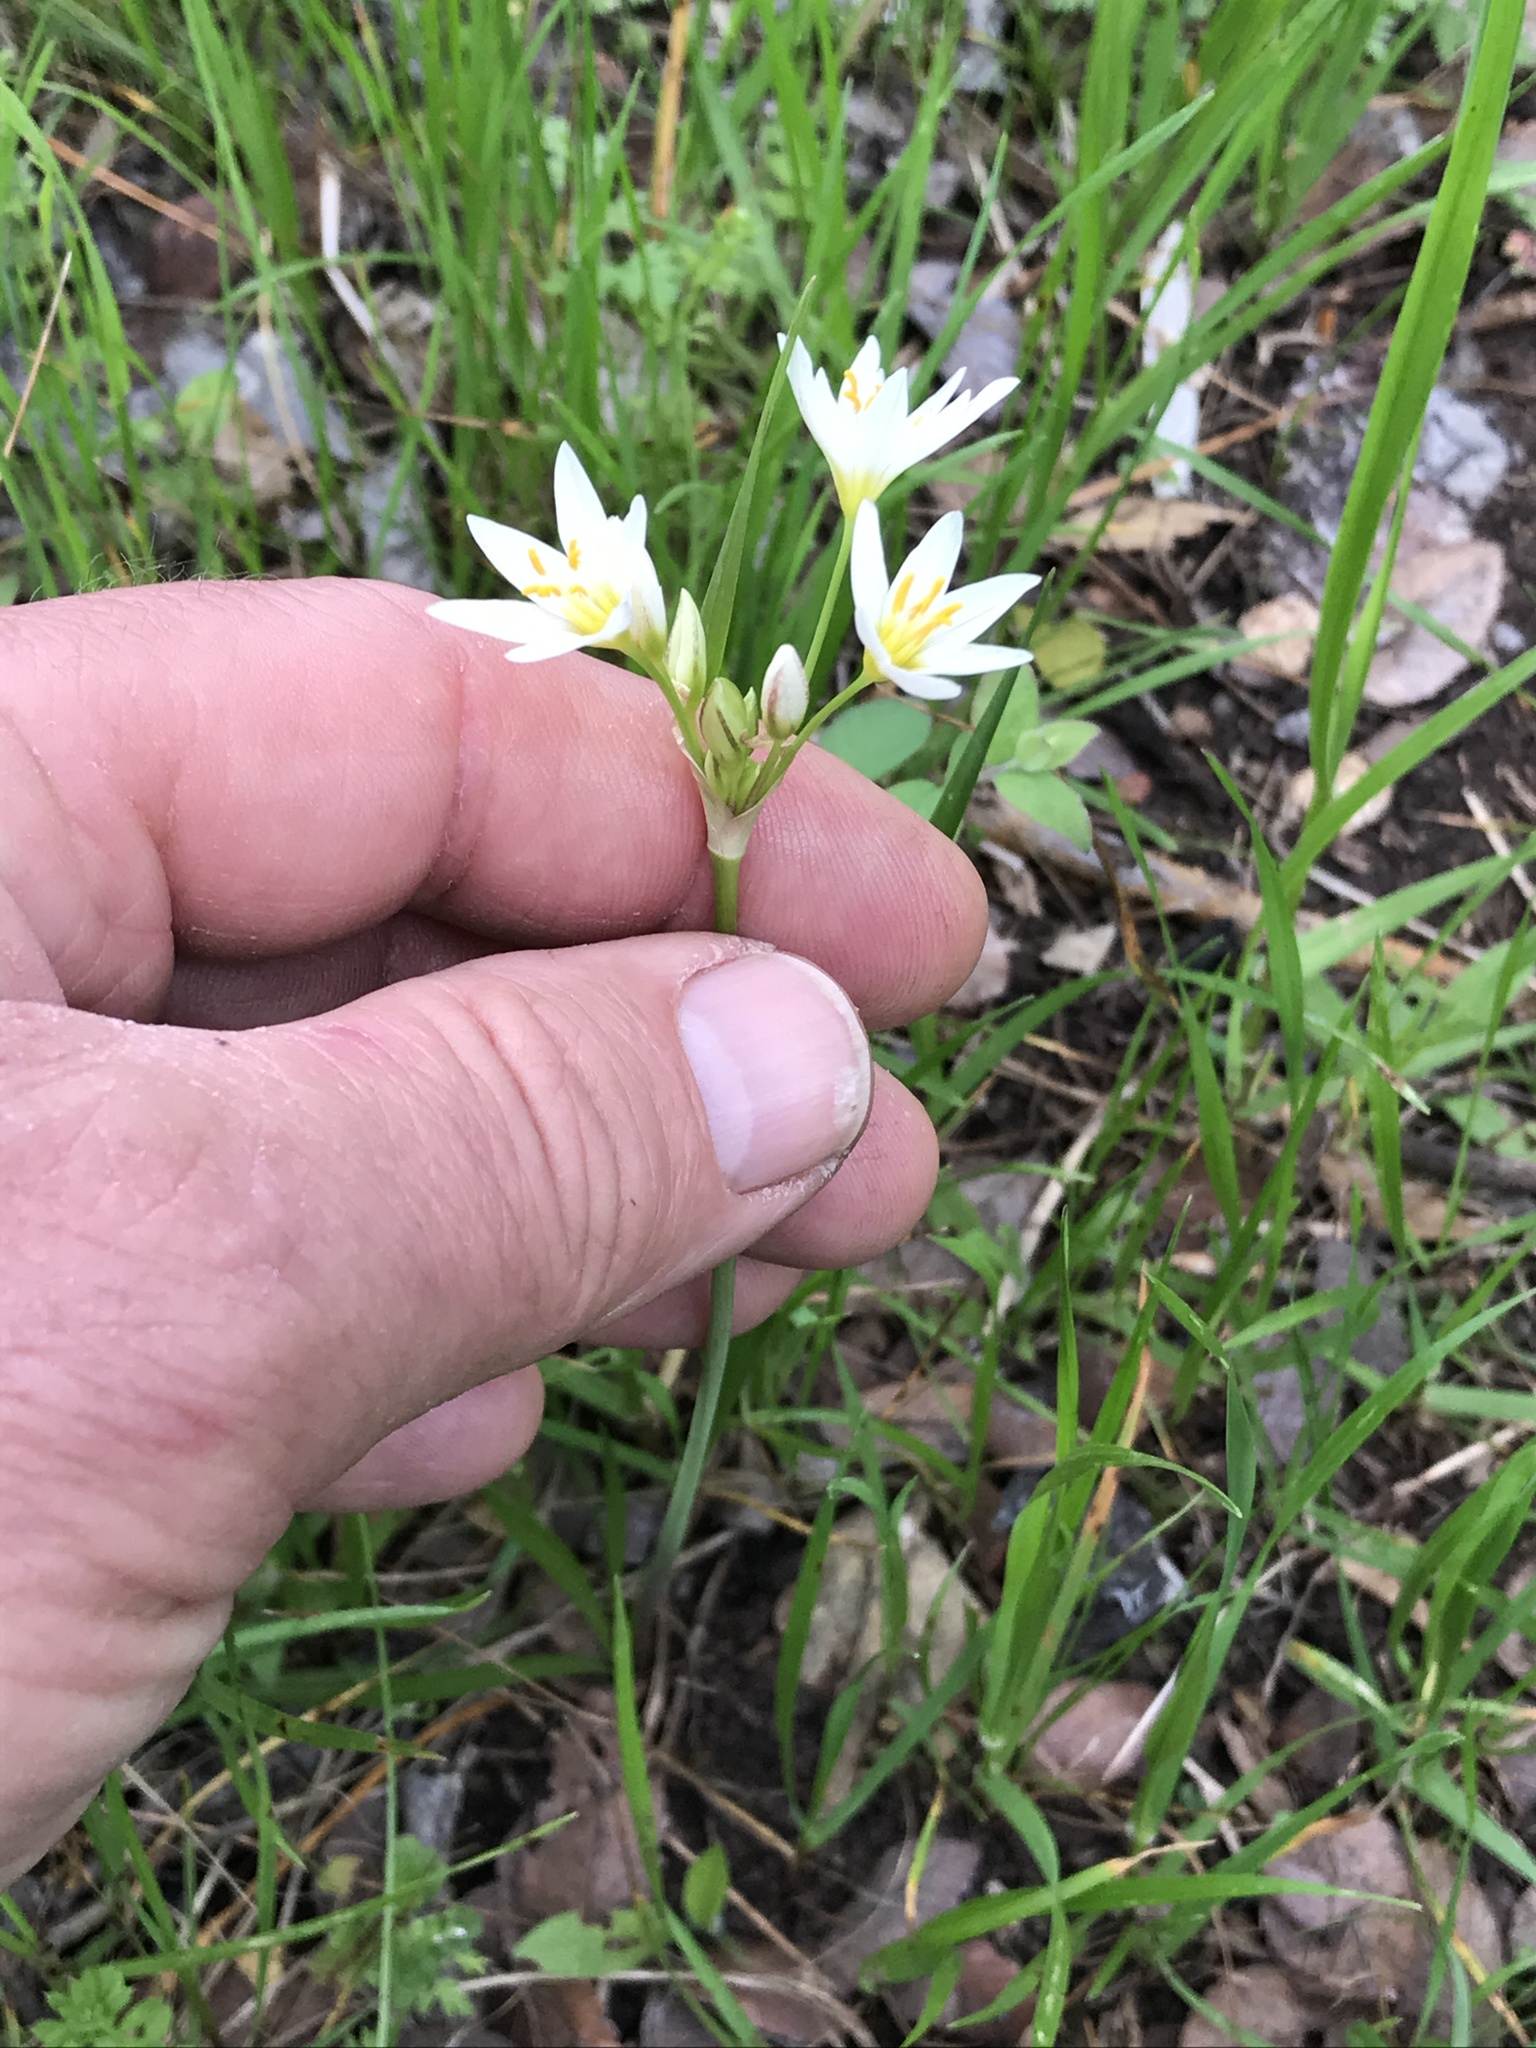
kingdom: Plantae
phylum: Tracheophyta
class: Liliopsida
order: Asparagales
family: Amaryllidaceae
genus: Nothoscordum
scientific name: Nothoscordum bivalve
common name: Crow-poison
